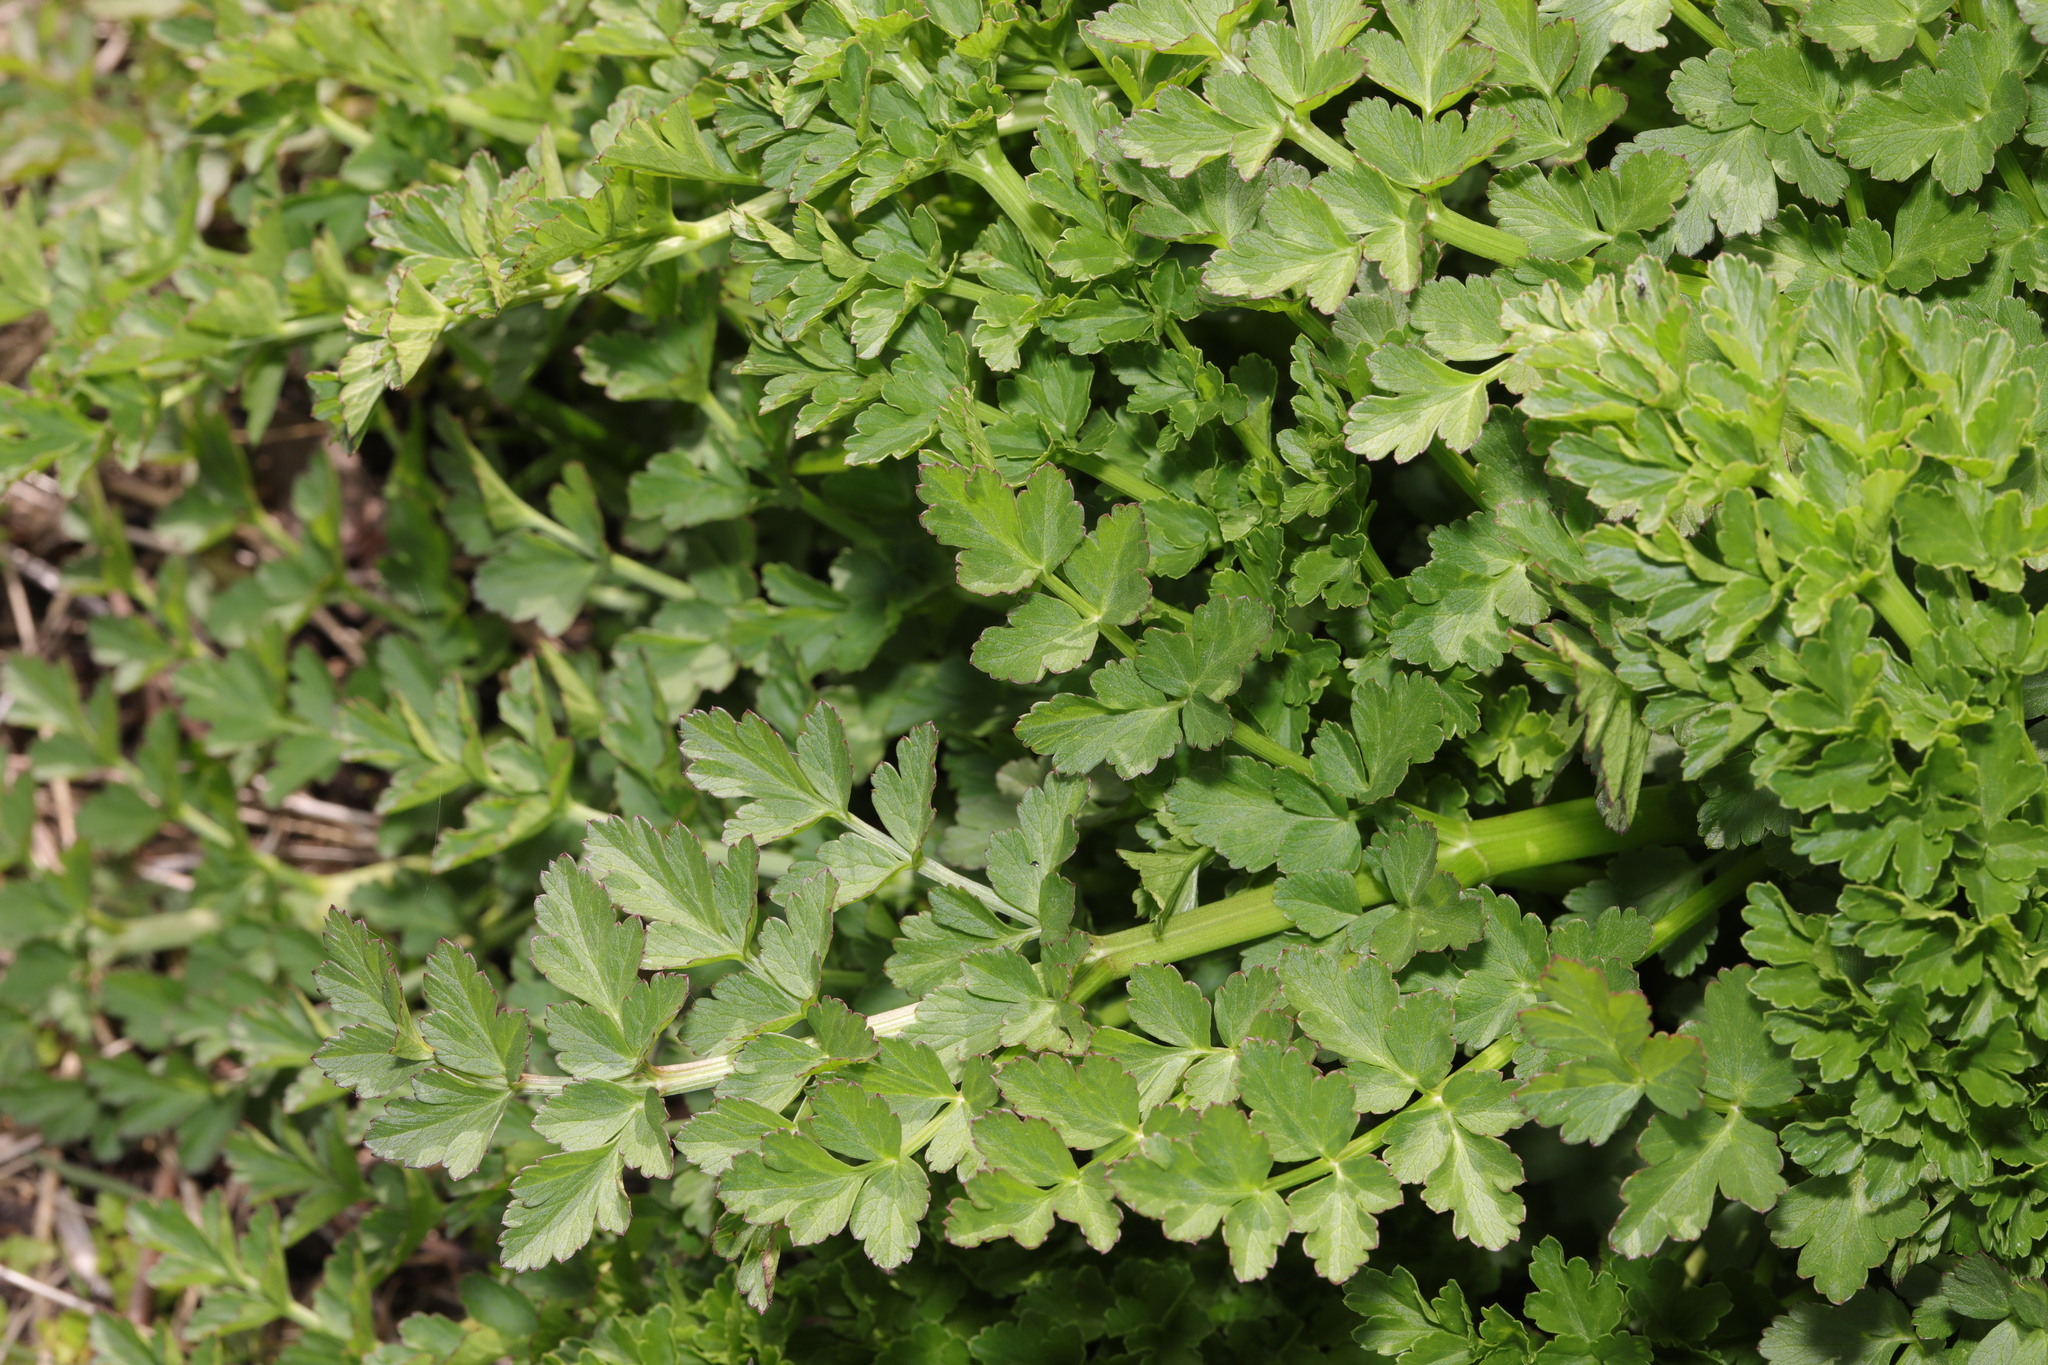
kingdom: Plantae
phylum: Tracheophyta
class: Magnoliopsida
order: Apiales
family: Apiaceae
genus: Oenanthe
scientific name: Oenanthe crocata
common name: Hemlock water-dropwort
